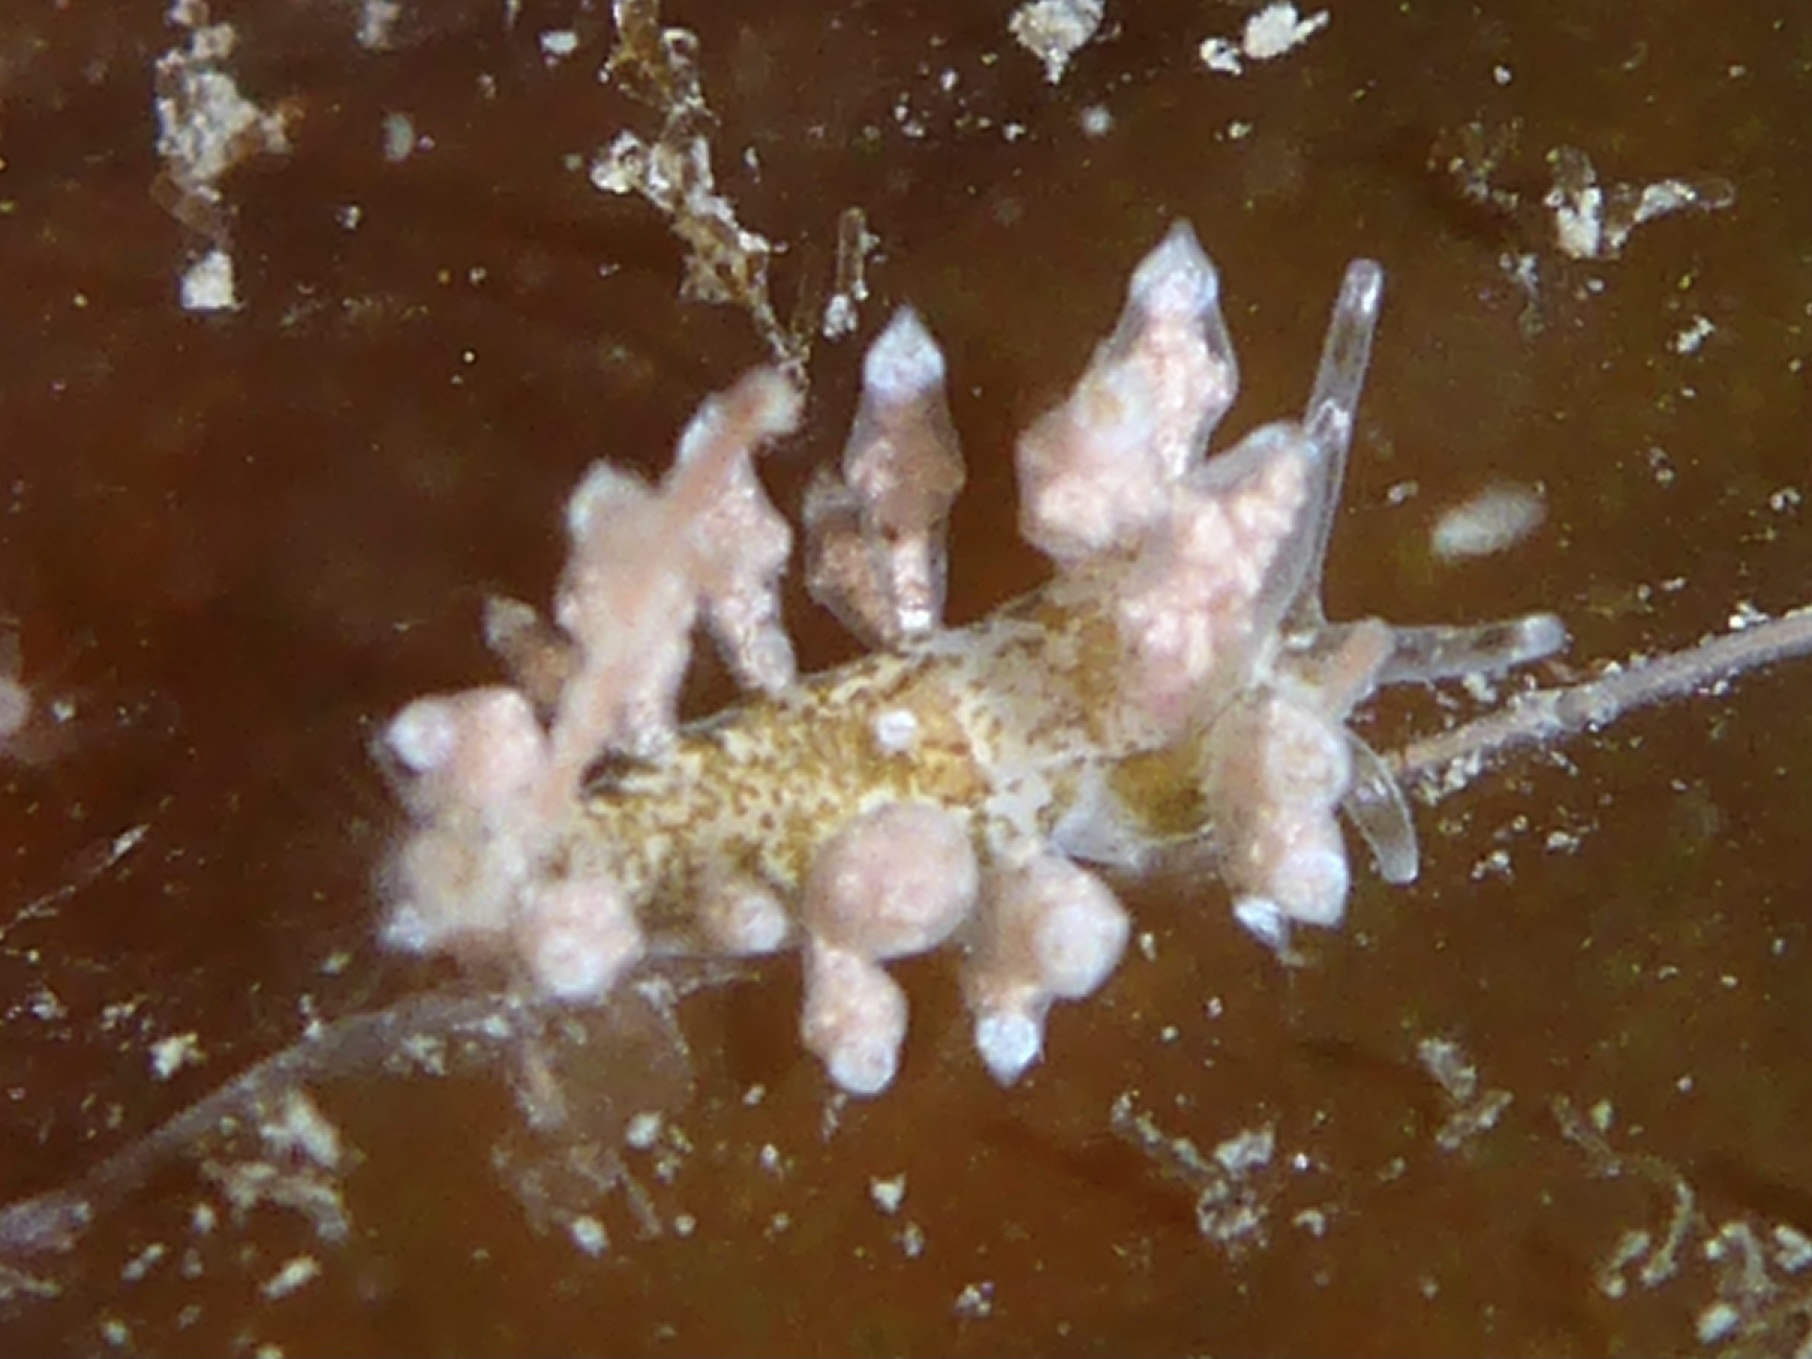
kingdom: Animalia
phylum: Mollusca
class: Gastropoda
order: Nudibranchia
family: Eubranchidae
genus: Eubranchus
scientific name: Eubranchus rustyus
